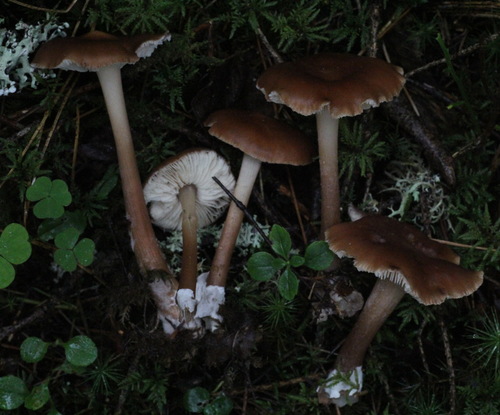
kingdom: Fungi
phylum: Basidiomycota
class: Agaricomycetes
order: Agaricales
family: Omphalotaceae
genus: Rhodocollybia
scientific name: Rhodocollybia butyracea
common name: Butter cap
